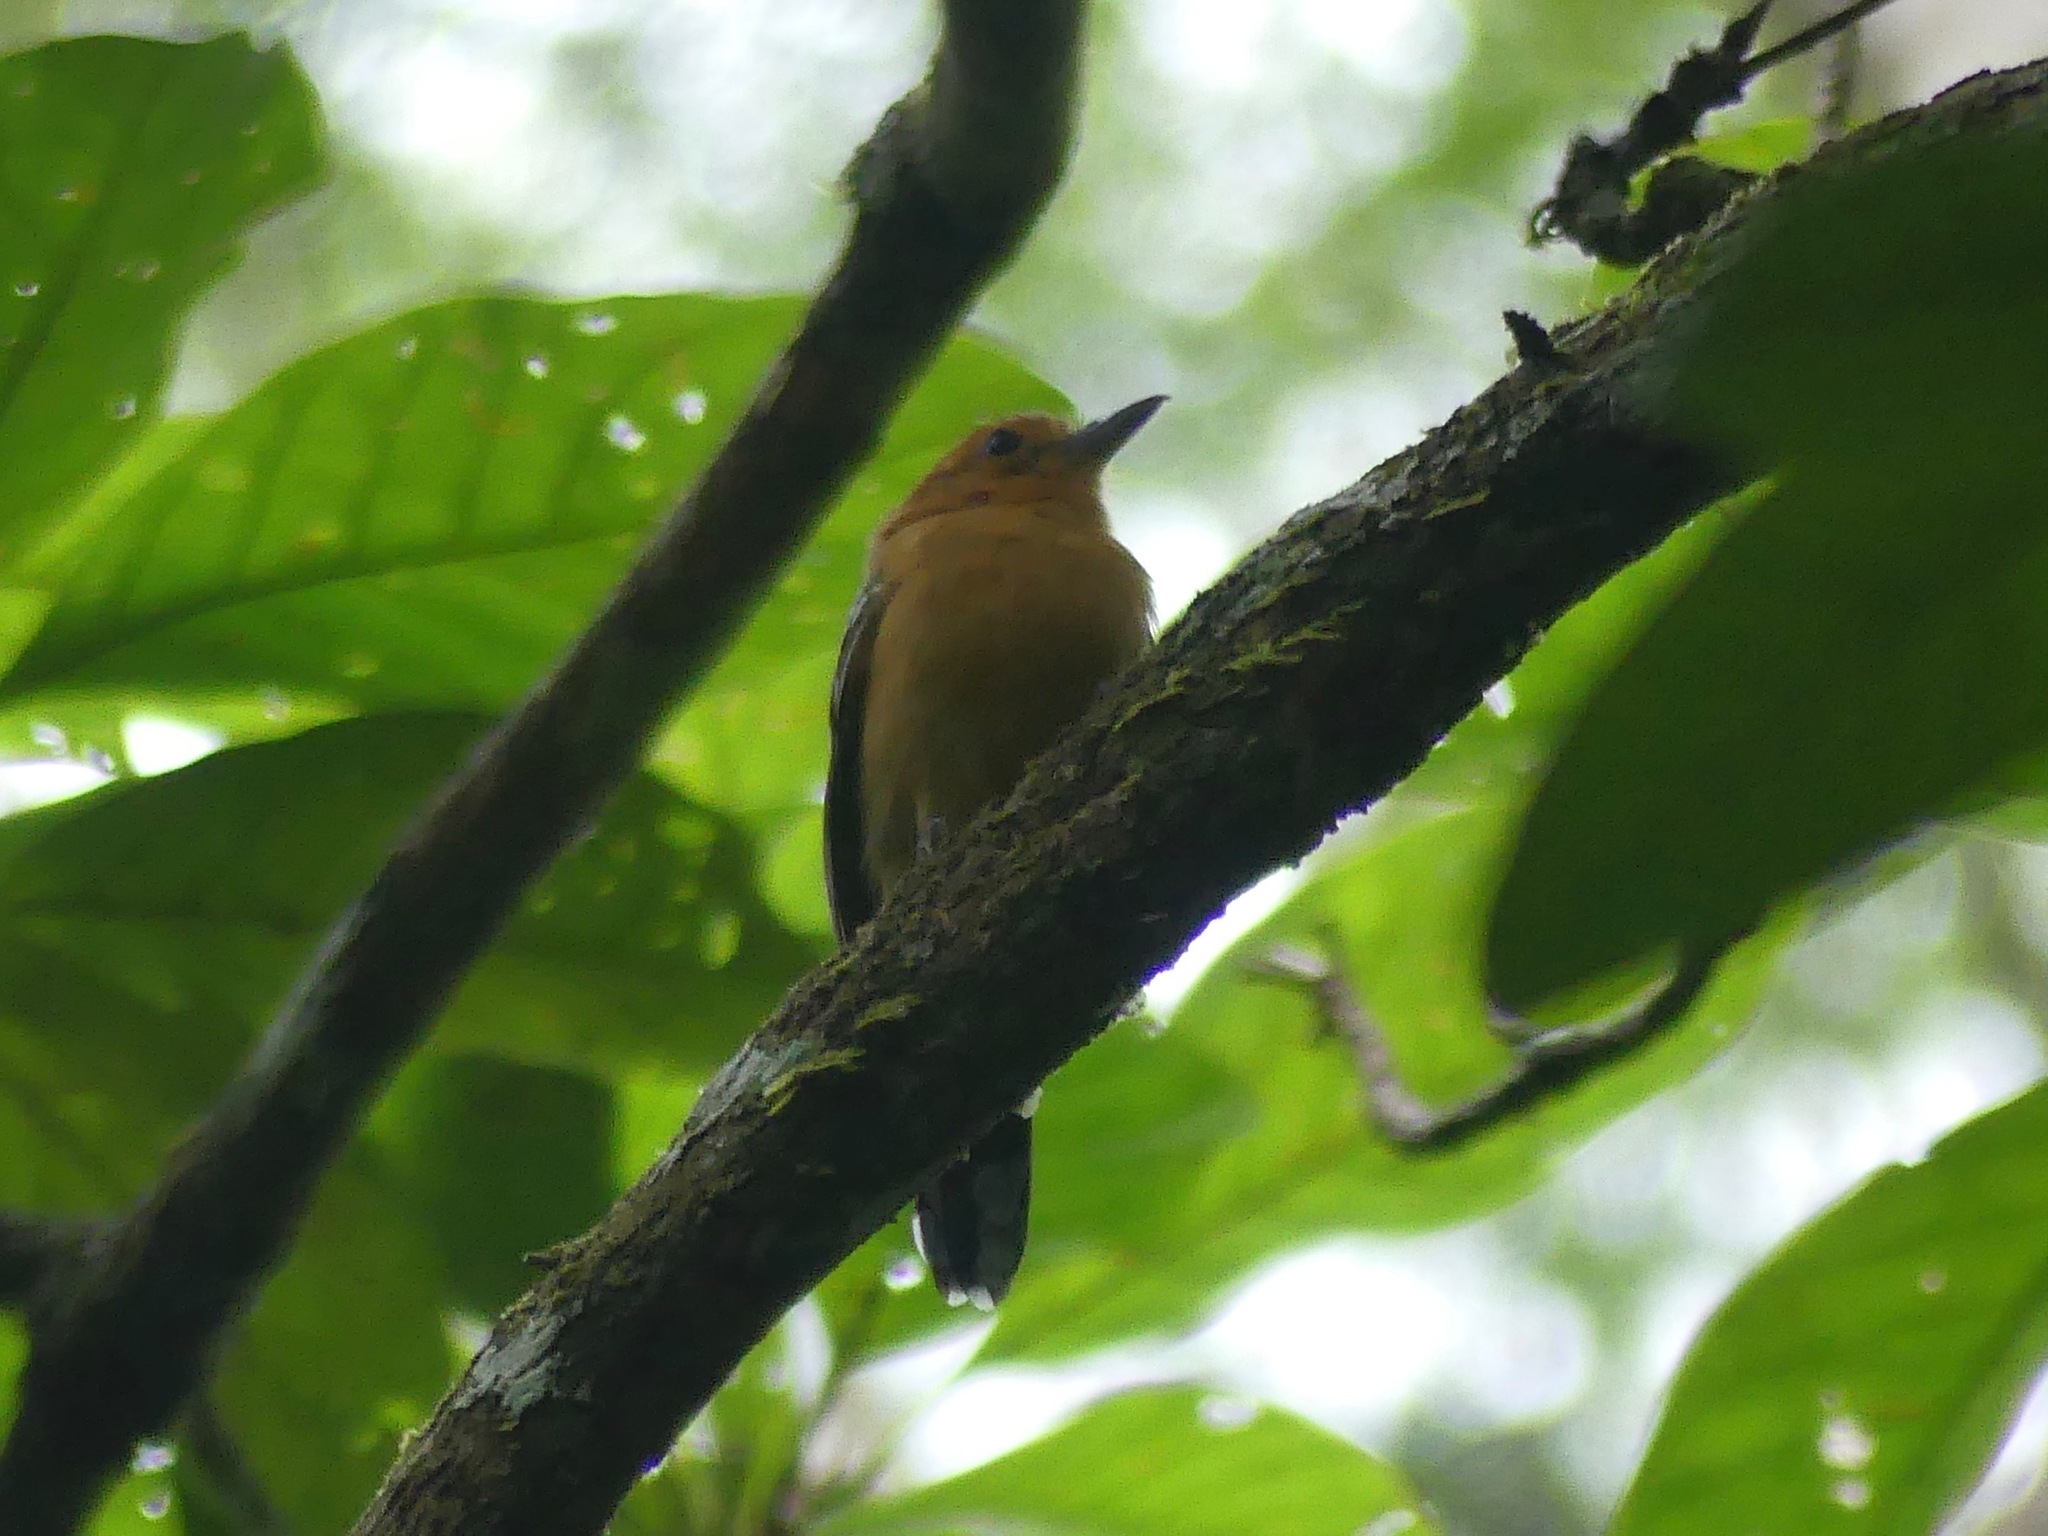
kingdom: Animalia
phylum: Chordata
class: Aves
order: Passeriformes
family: Thamnophilidae
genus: Thamnophilus
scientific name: Thamnophilus amazonicus
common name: Amazonian antshrike
